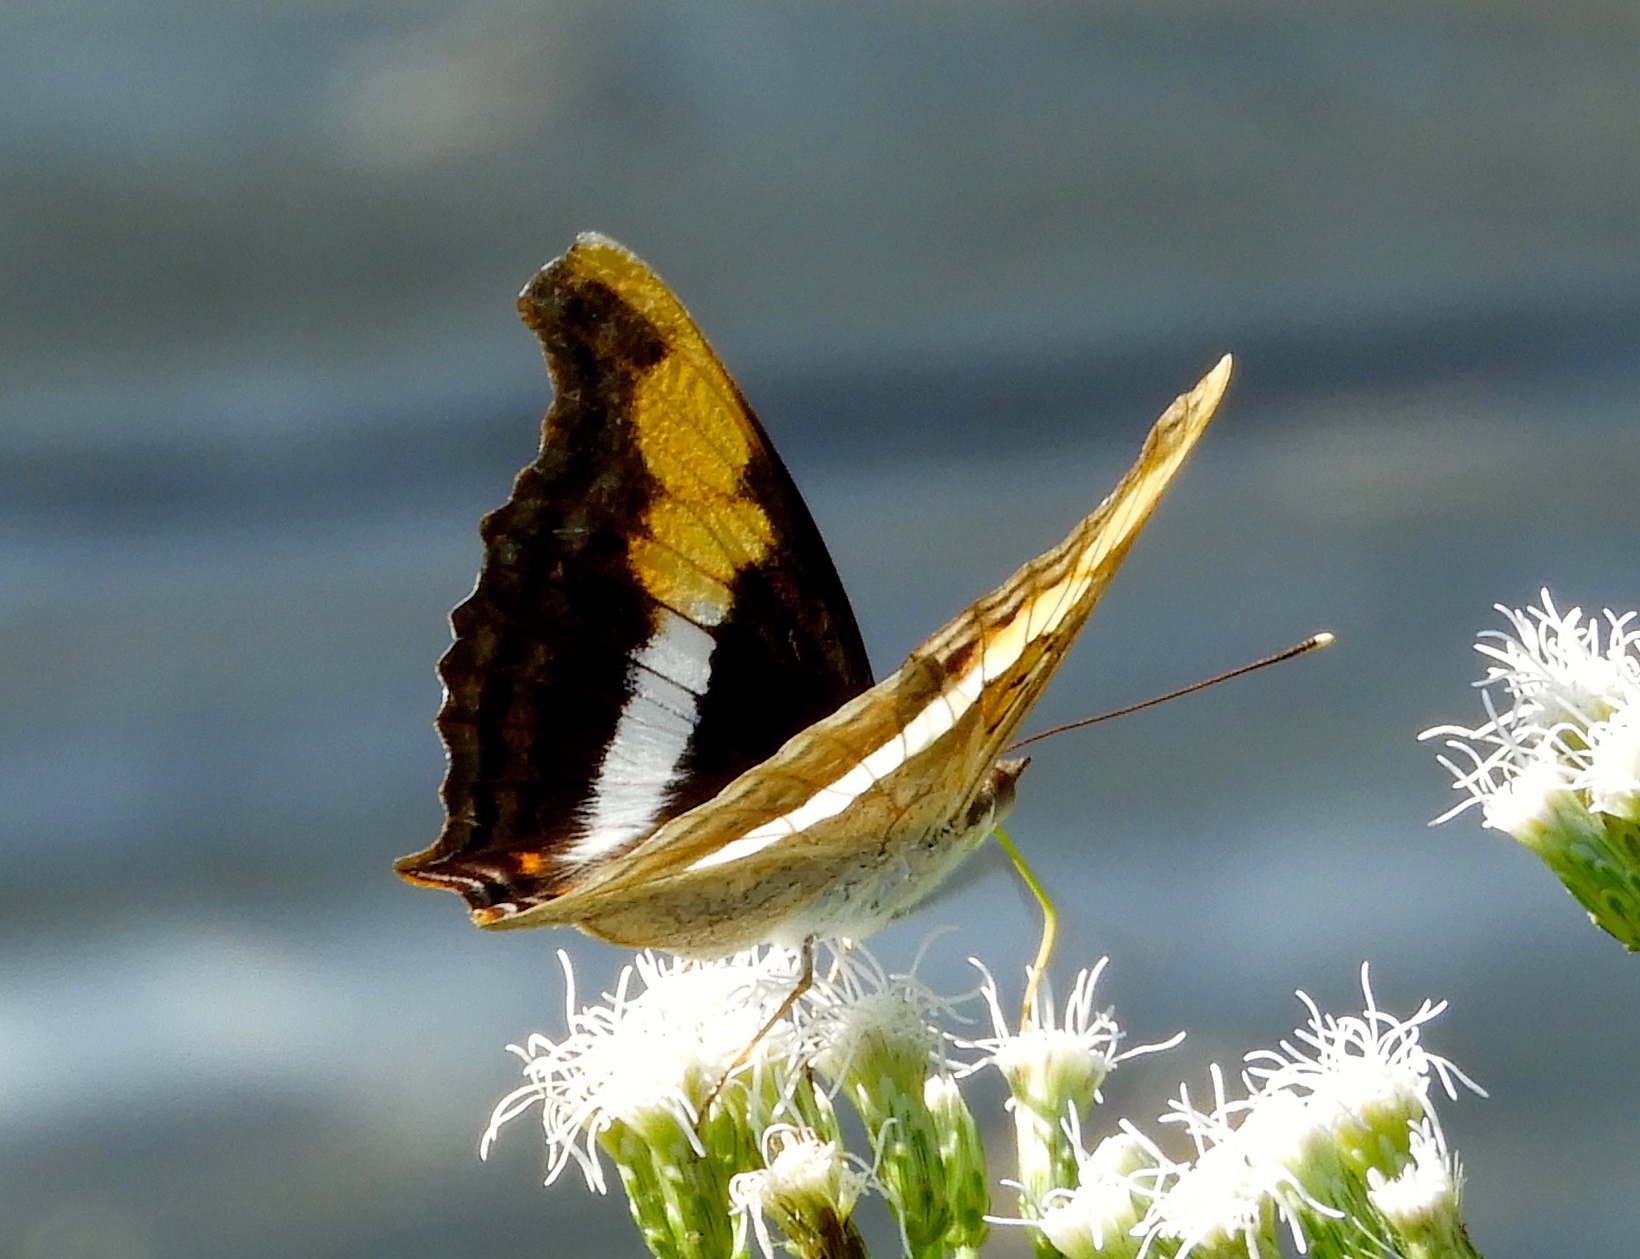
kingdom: Animalia
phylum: Arthropoda
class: Insecta
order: Lepidoptera
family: Nymphalidae
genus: Doxocopa
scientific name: Doxocopa laure
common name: Silver emperor
